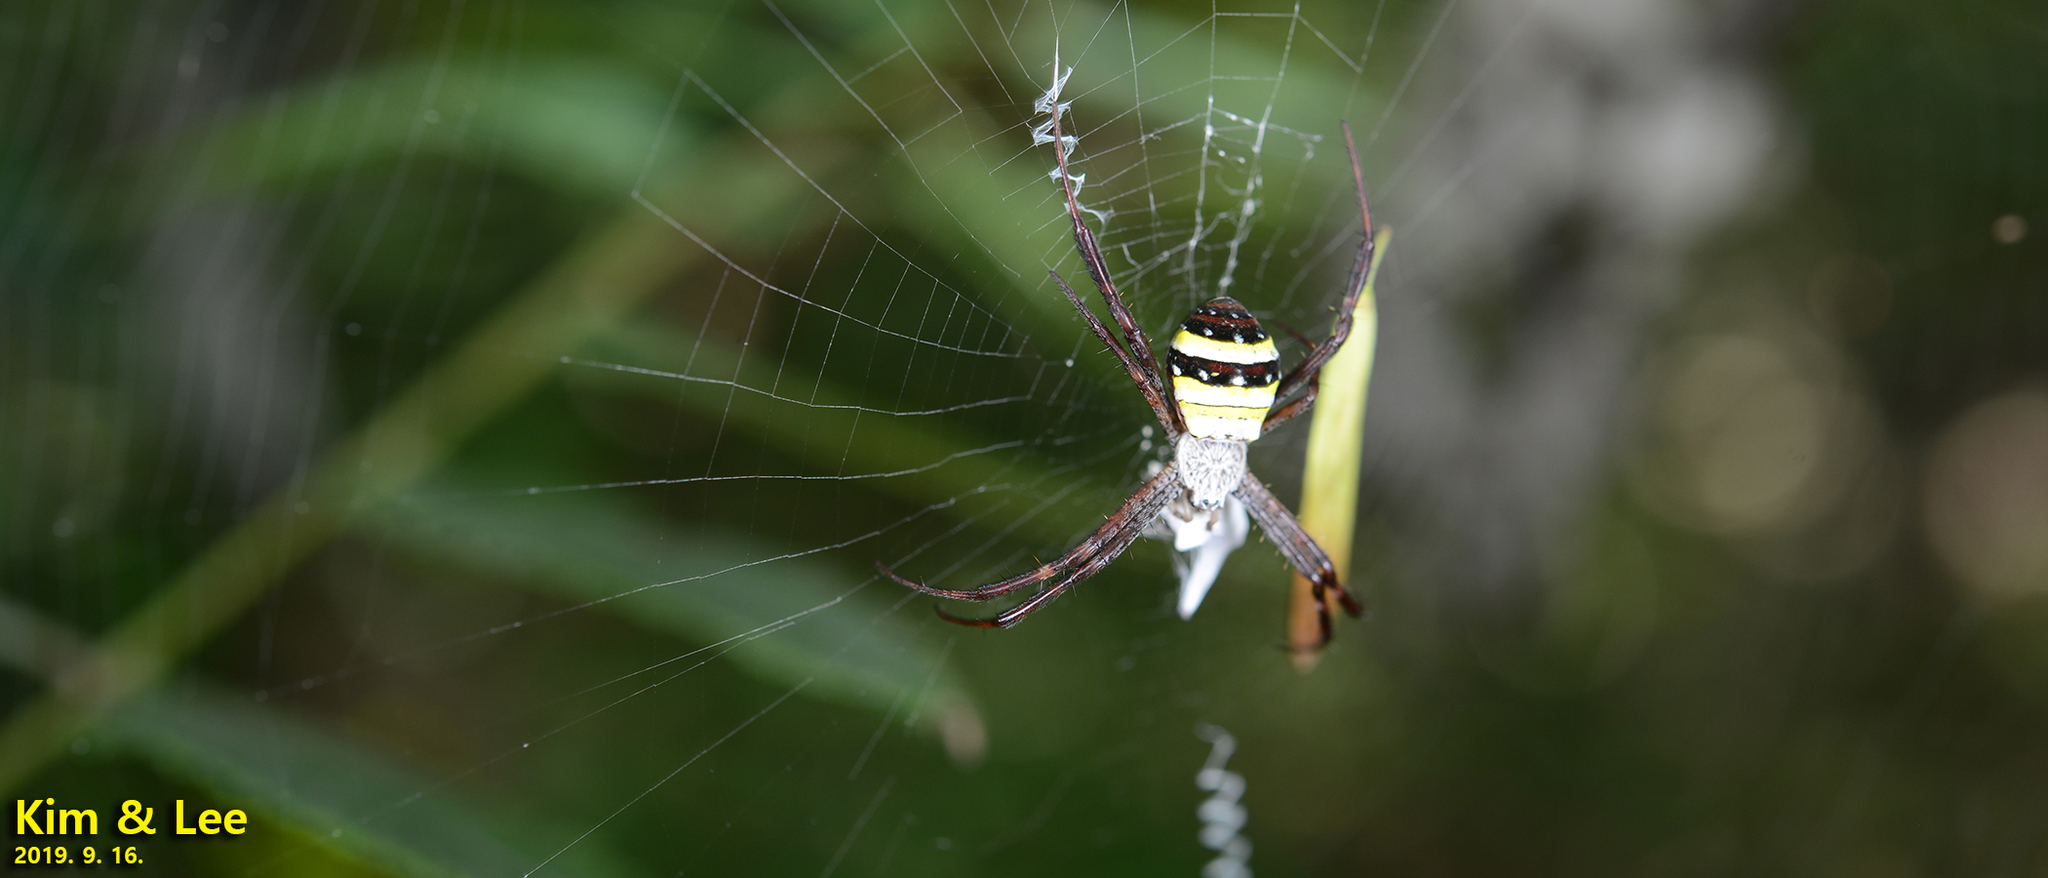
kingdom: Animalia
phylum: Arthropoda
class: Arachnida
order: Araneae
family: Araneidae
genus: Argiope
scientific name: Argiope minuta
